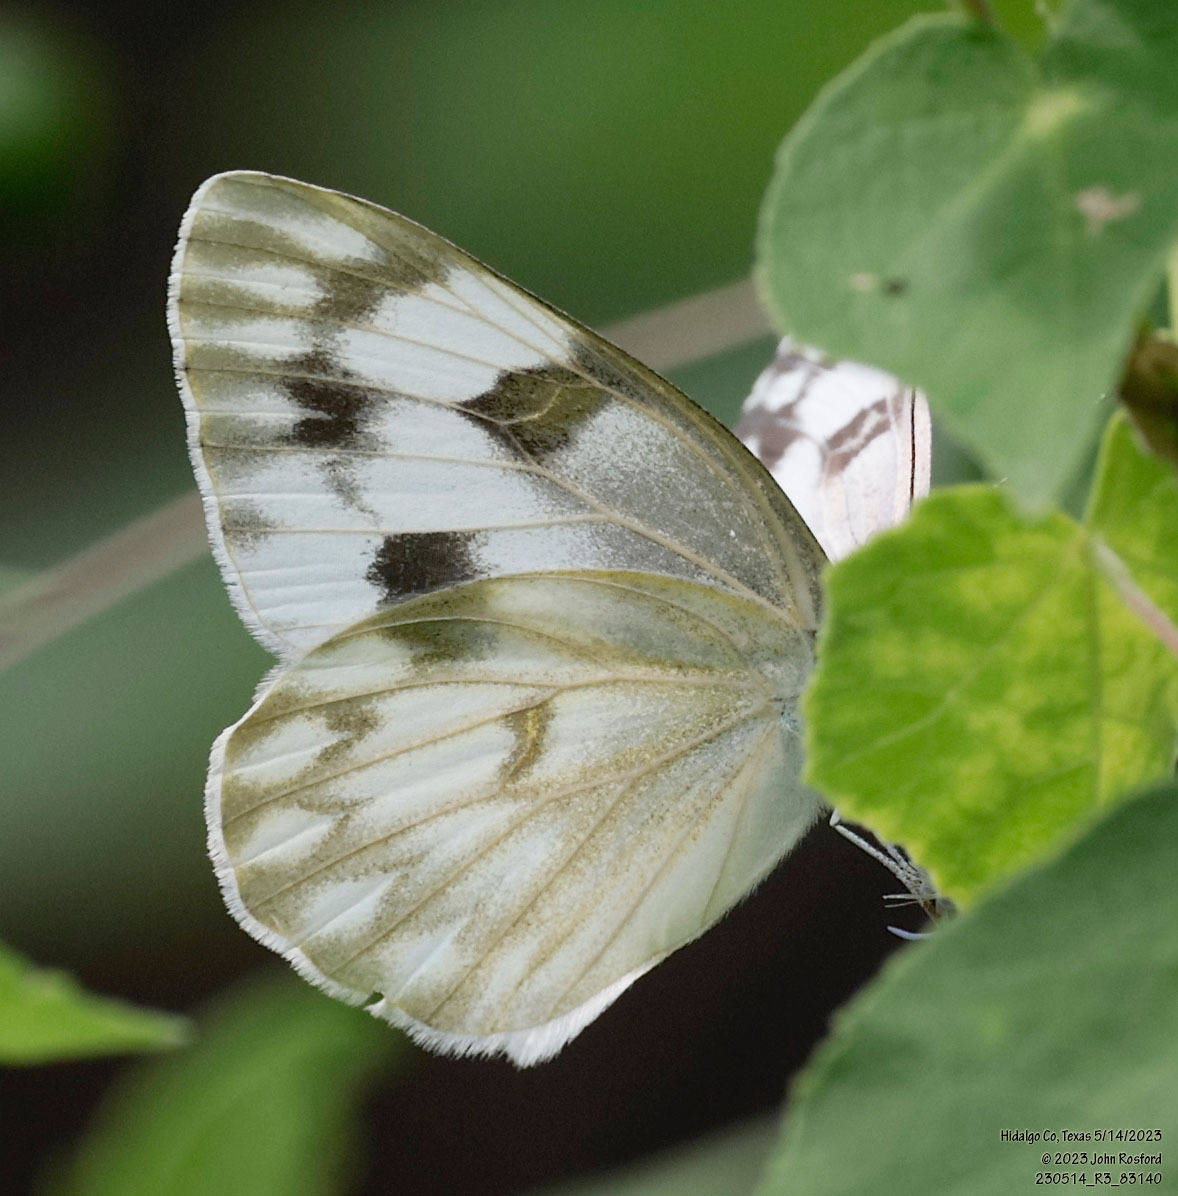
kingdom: Animalia
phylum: Arthropoda
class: Insecta
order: Lepidoptera
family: Pieridae
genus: Pontia
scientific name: Pontia protodice
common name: Checkered white
